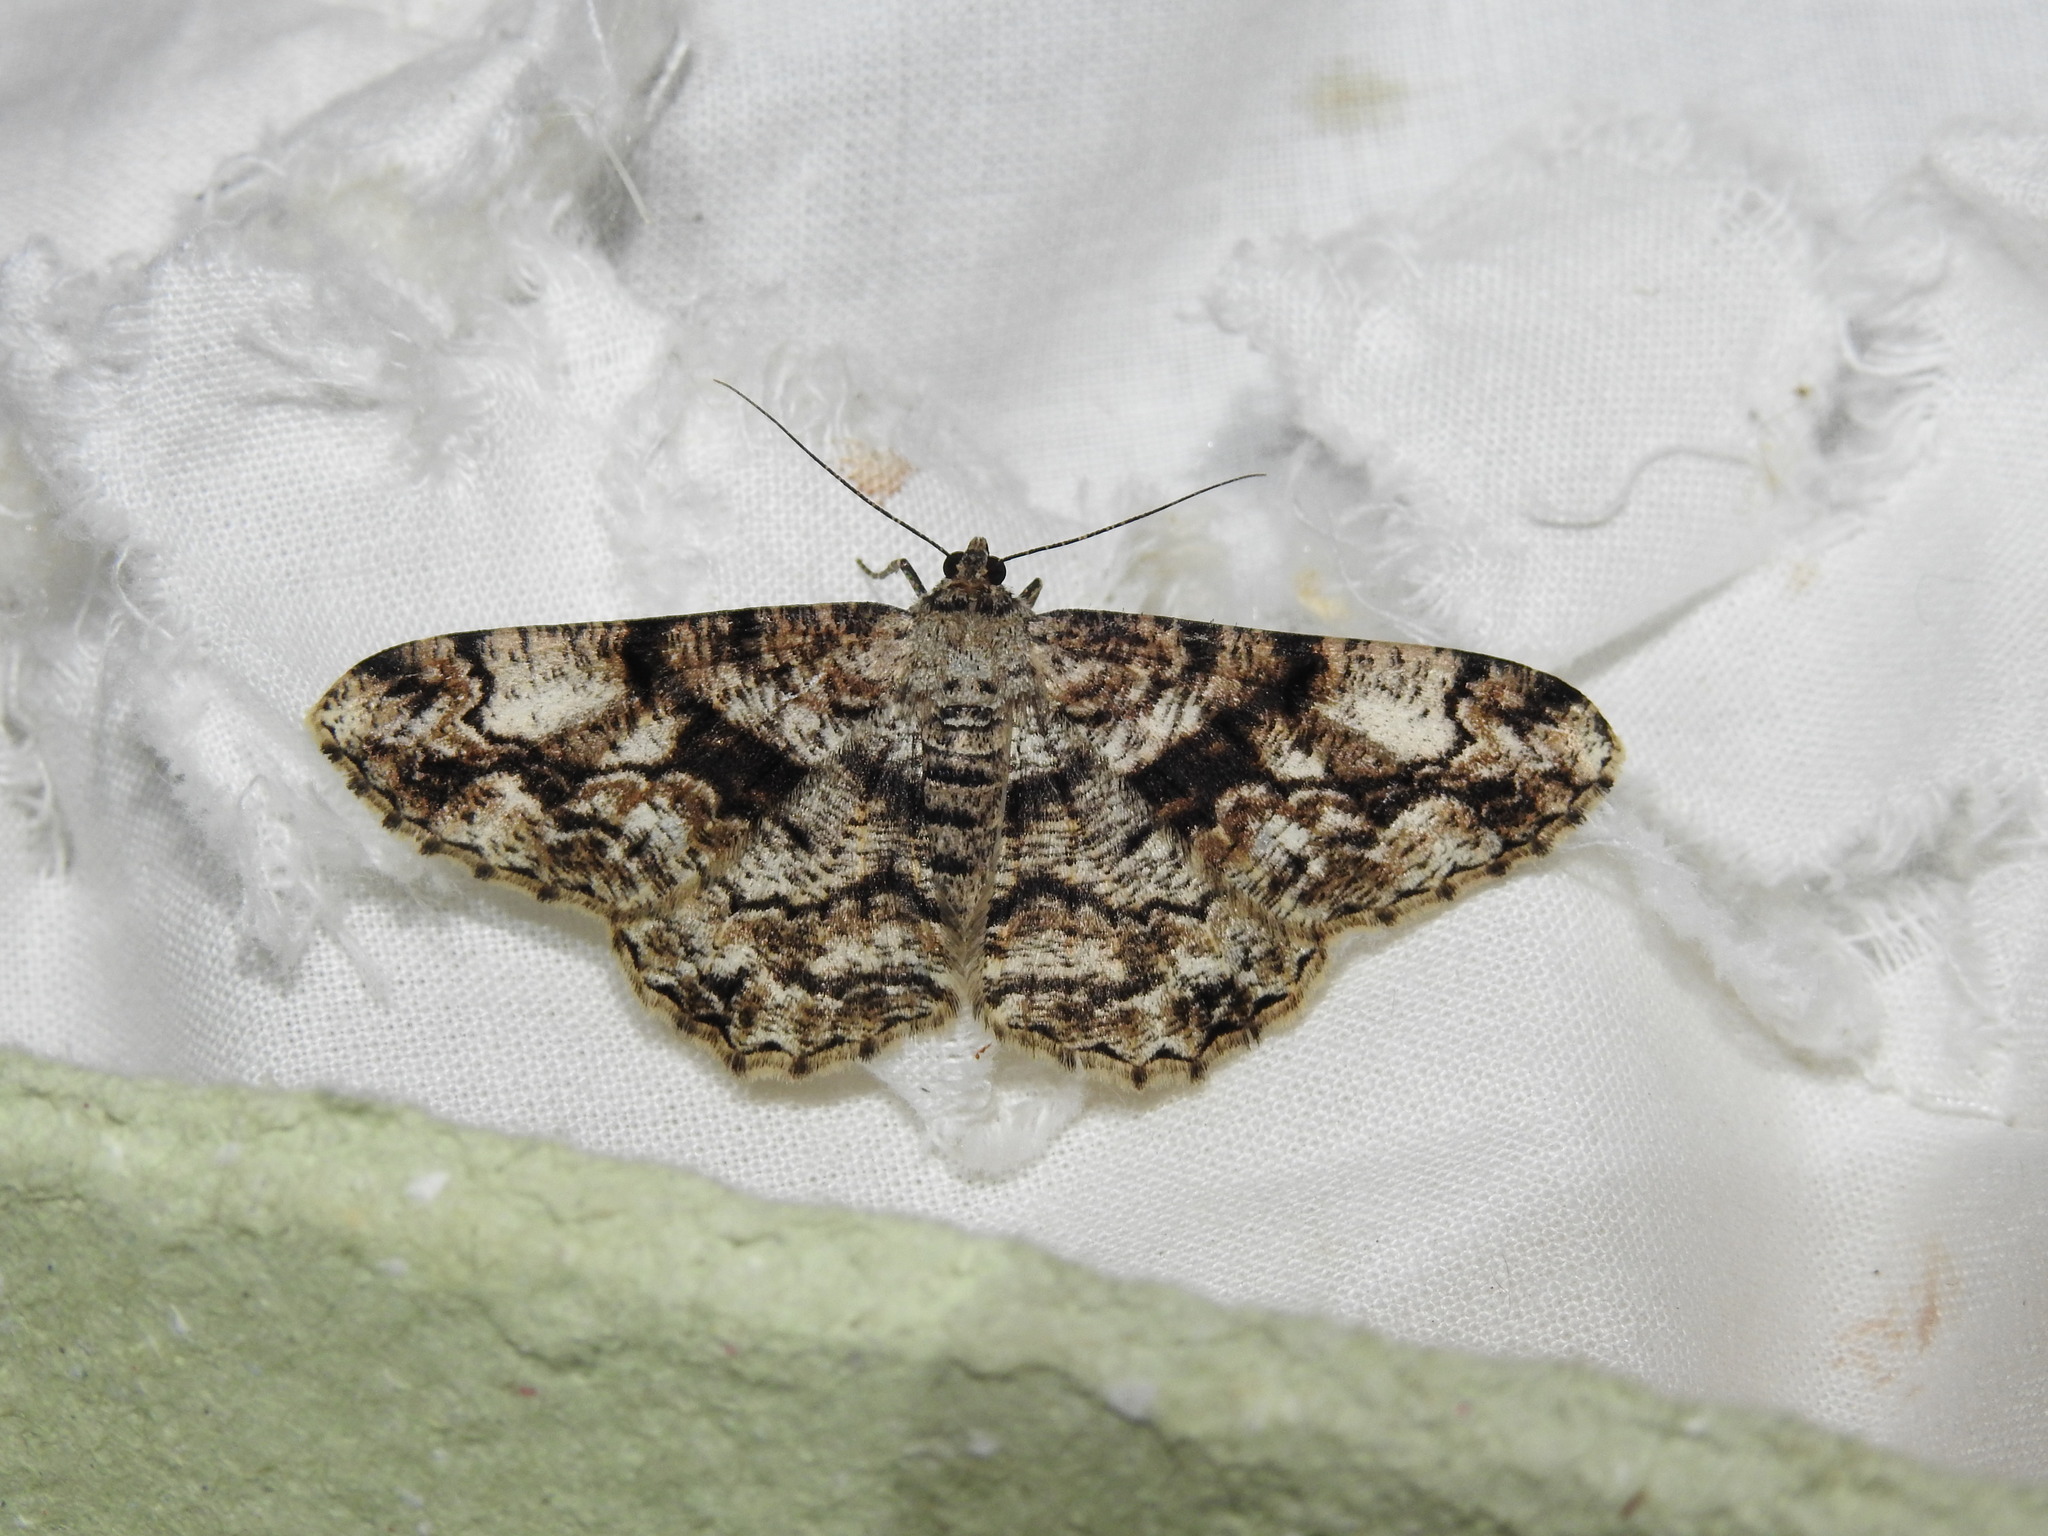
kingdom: Animalia
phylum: Arthropoda
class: Insecta
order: Lepidoptera
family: Geometridae
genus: Peribatodes
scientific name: Peribatodes umbraria
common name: Olive-tree beauty
